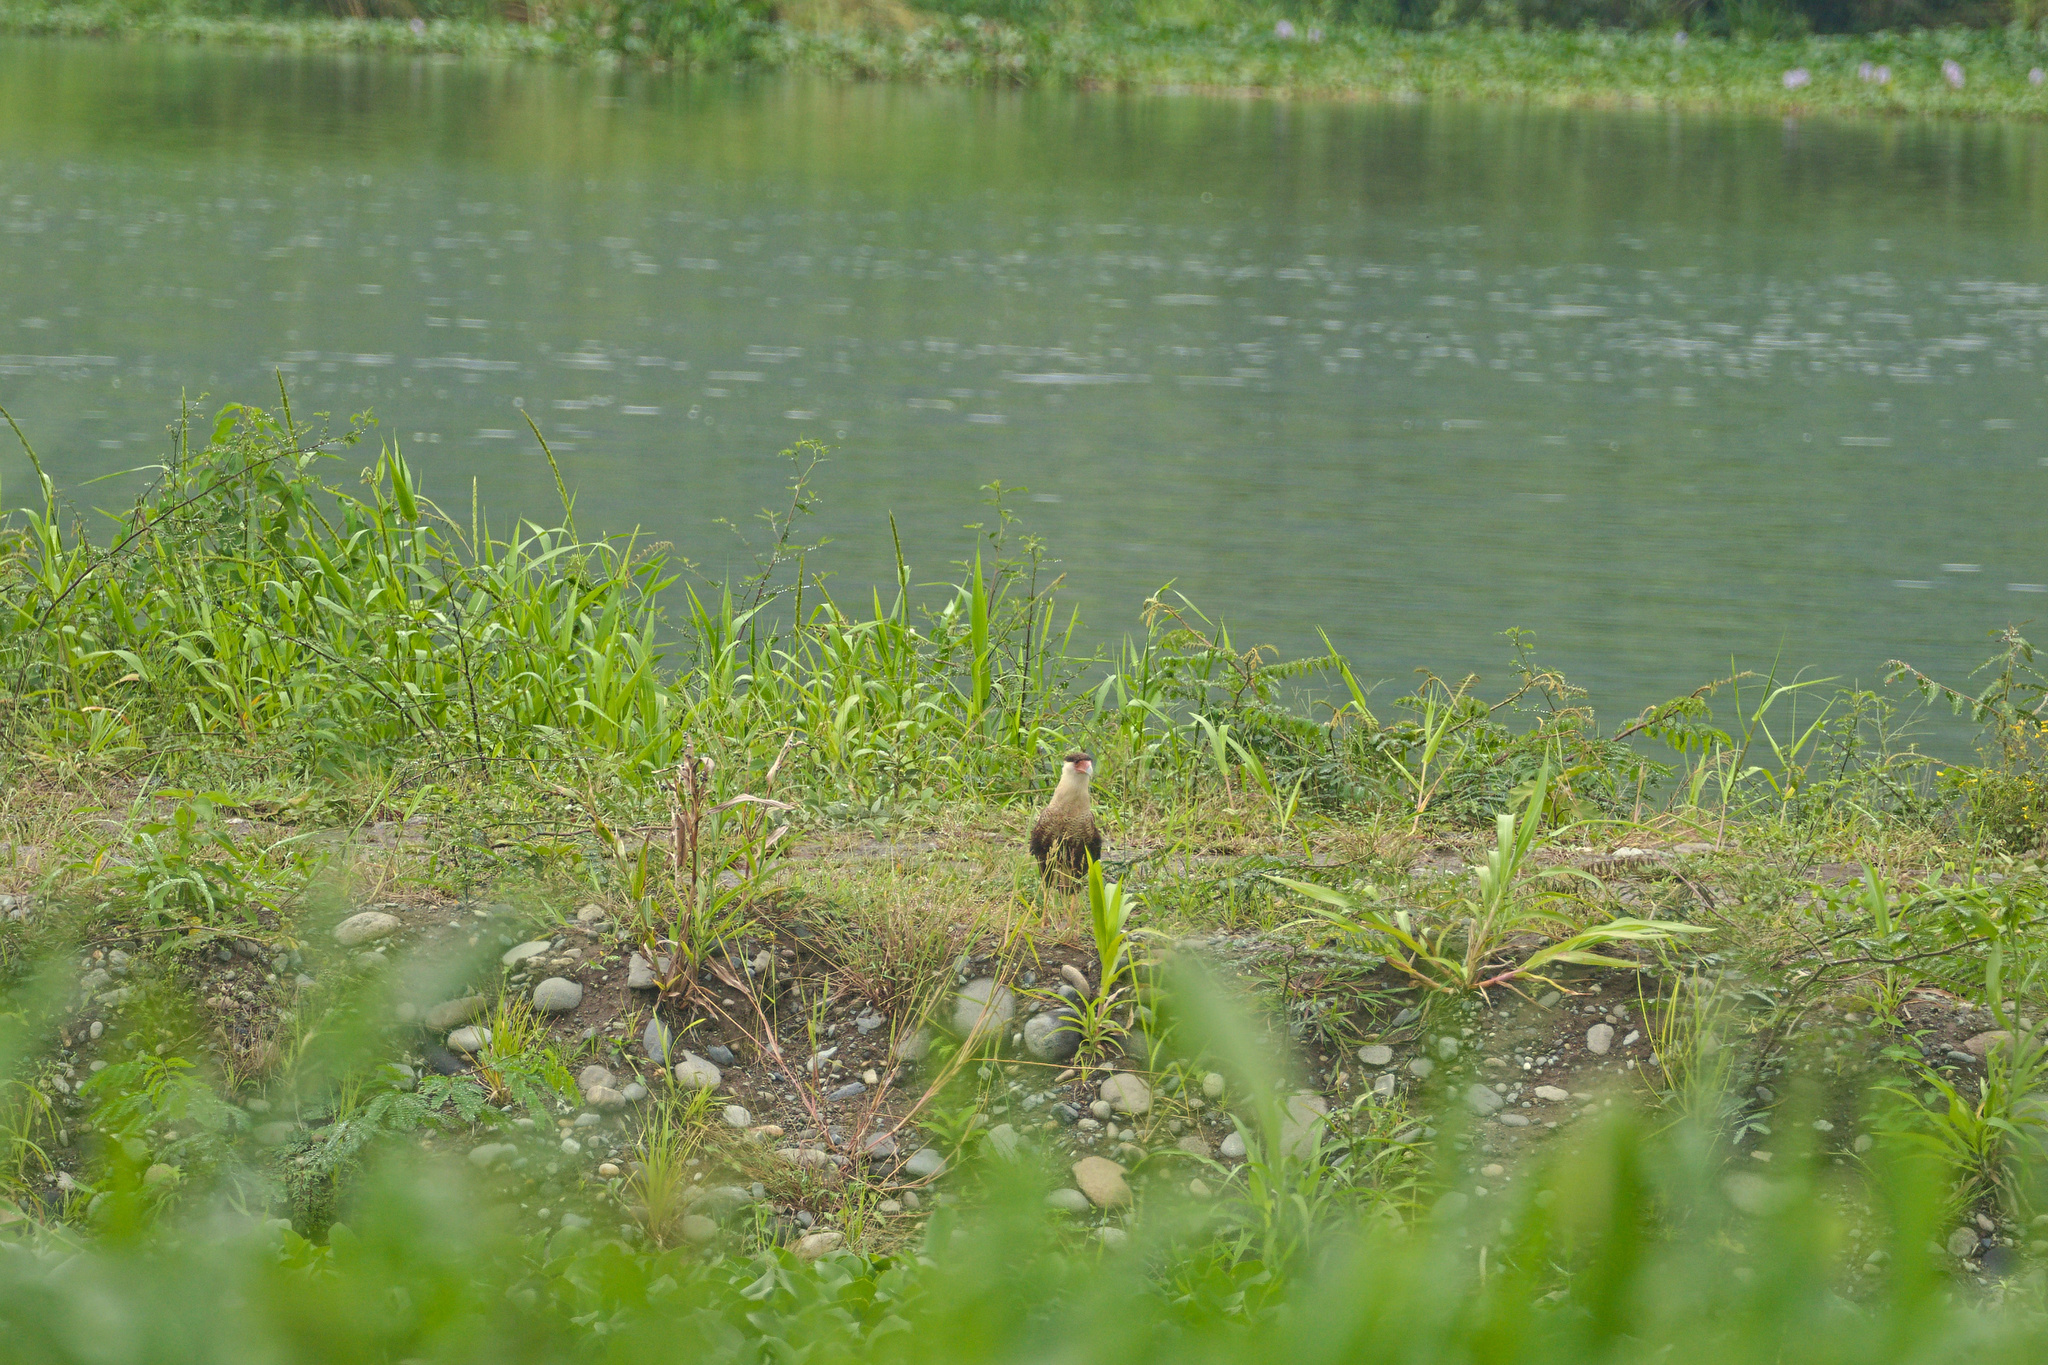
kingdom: Animalia
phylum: Chordata
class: Aves
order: Falconiformes
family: Falconidae
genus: Caracara
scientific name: Caracara plancus
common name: Southern caracara
